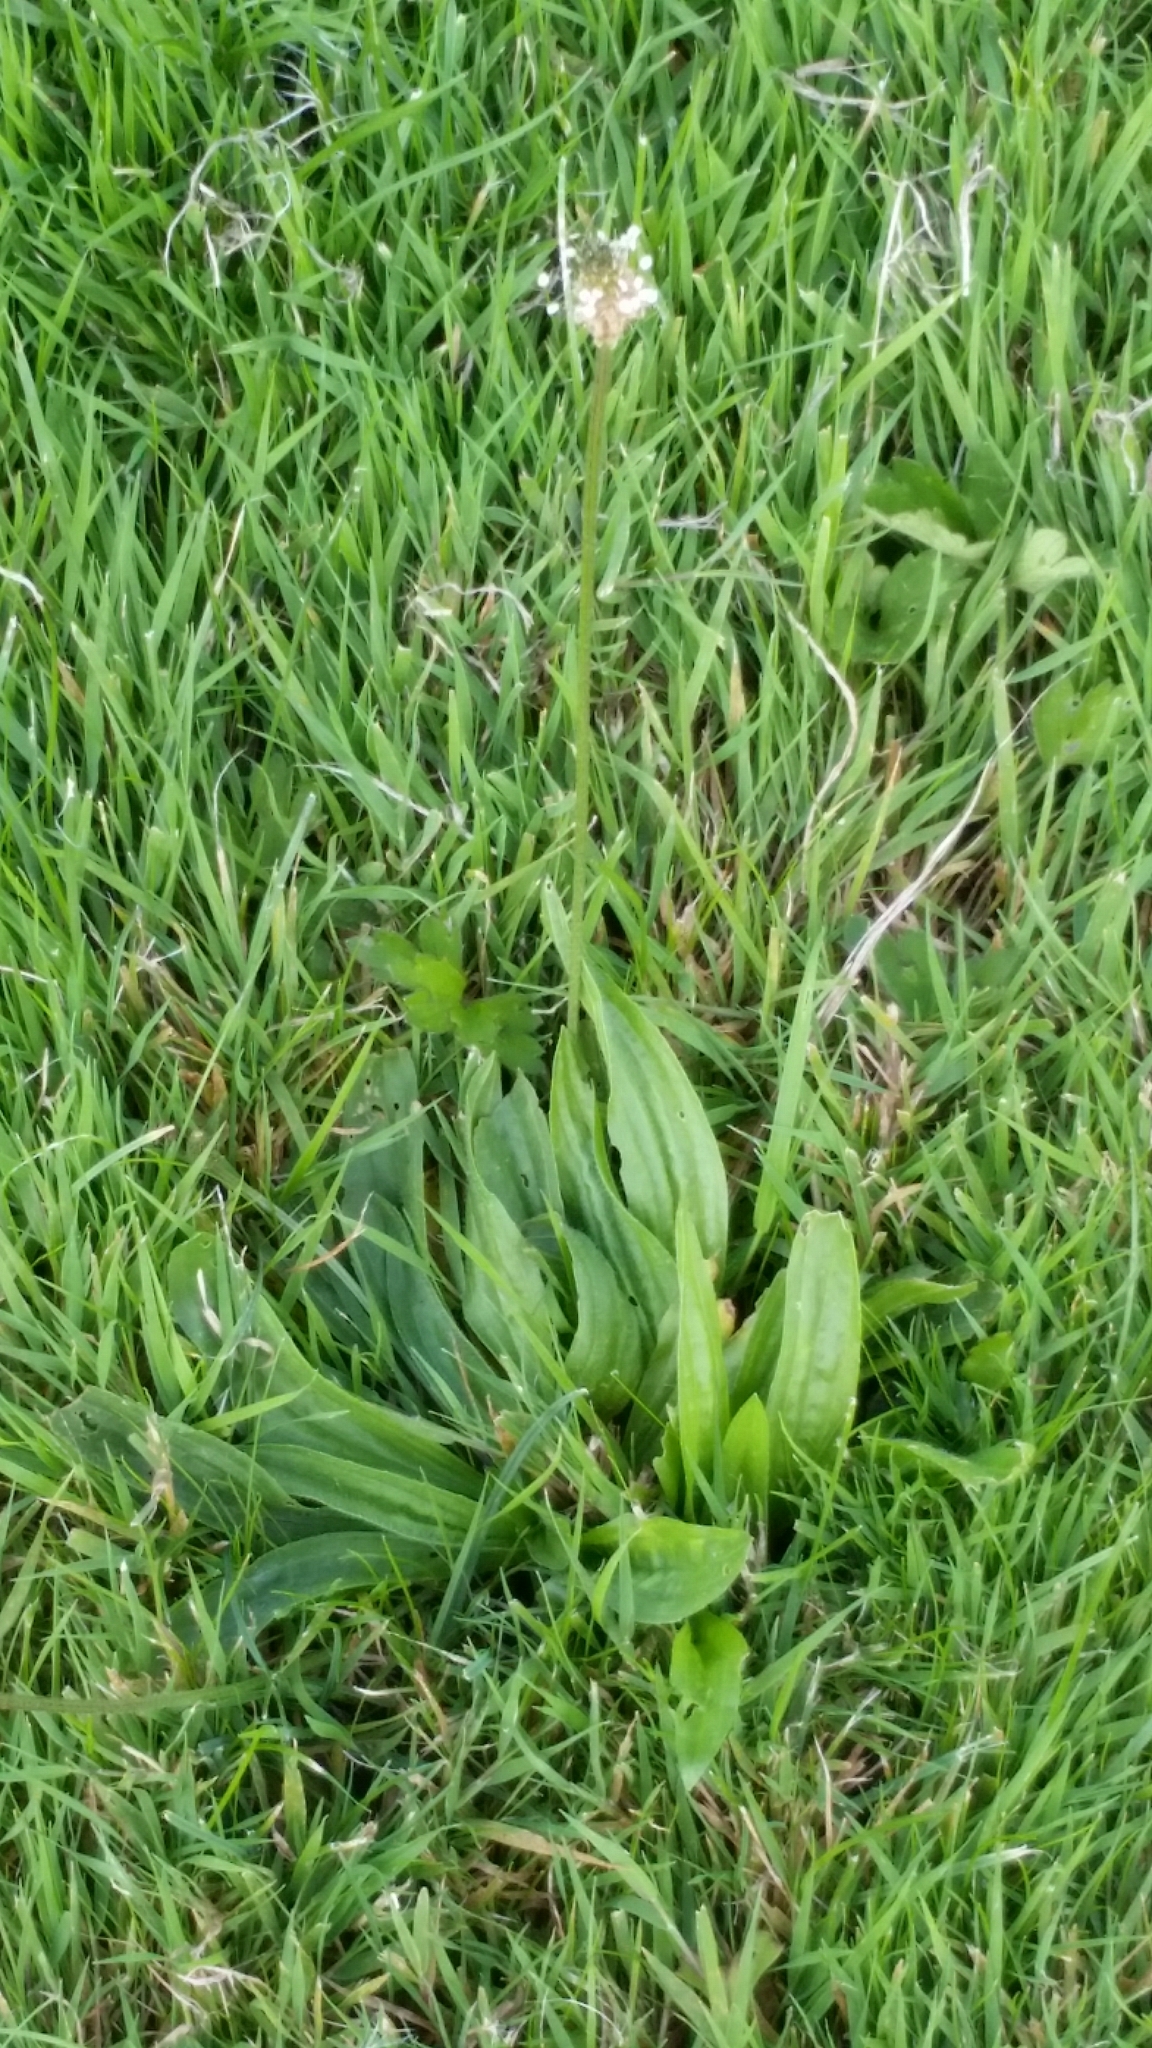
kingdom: Plantae
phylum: Tracheophyta
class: Magnoliopsida
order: Lamiales
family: Plantaginaceae
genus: Plantago
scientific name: Plantago lanceolata
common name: Ribwort plantain
